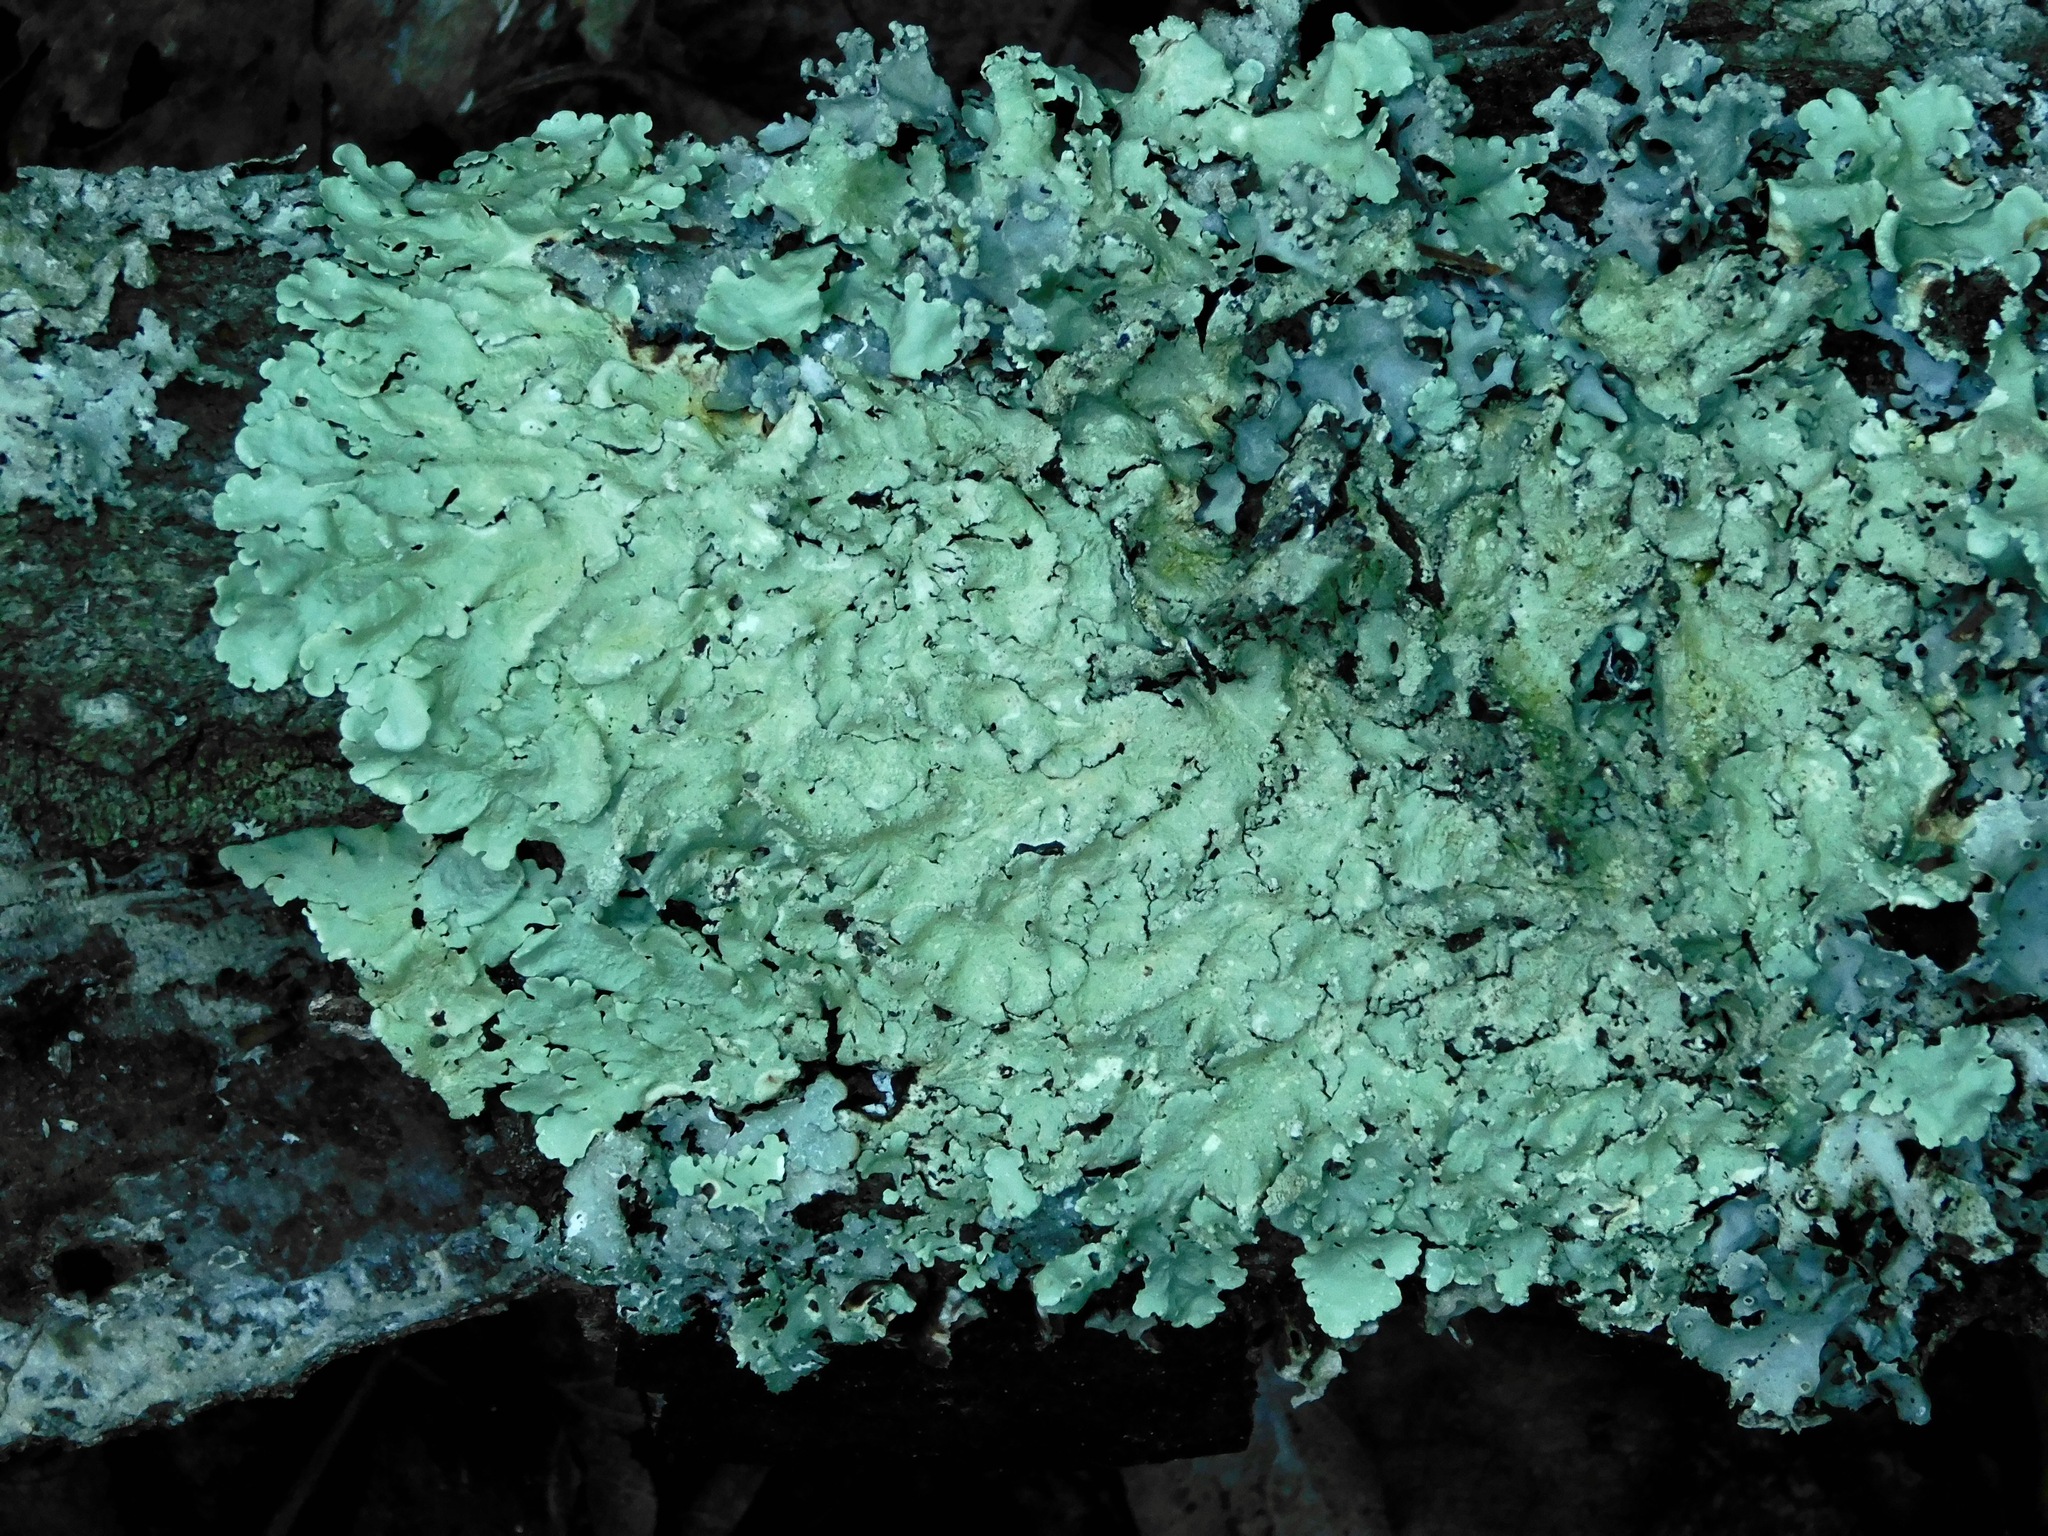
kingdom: Fungi
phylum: Ascomycota
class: Lecanoromycetes
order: Lecanorales
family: Parmeliaceae
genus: Flavoparmelia
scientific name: Flavoparmelia caperata
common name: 40-mile per hour lichen
